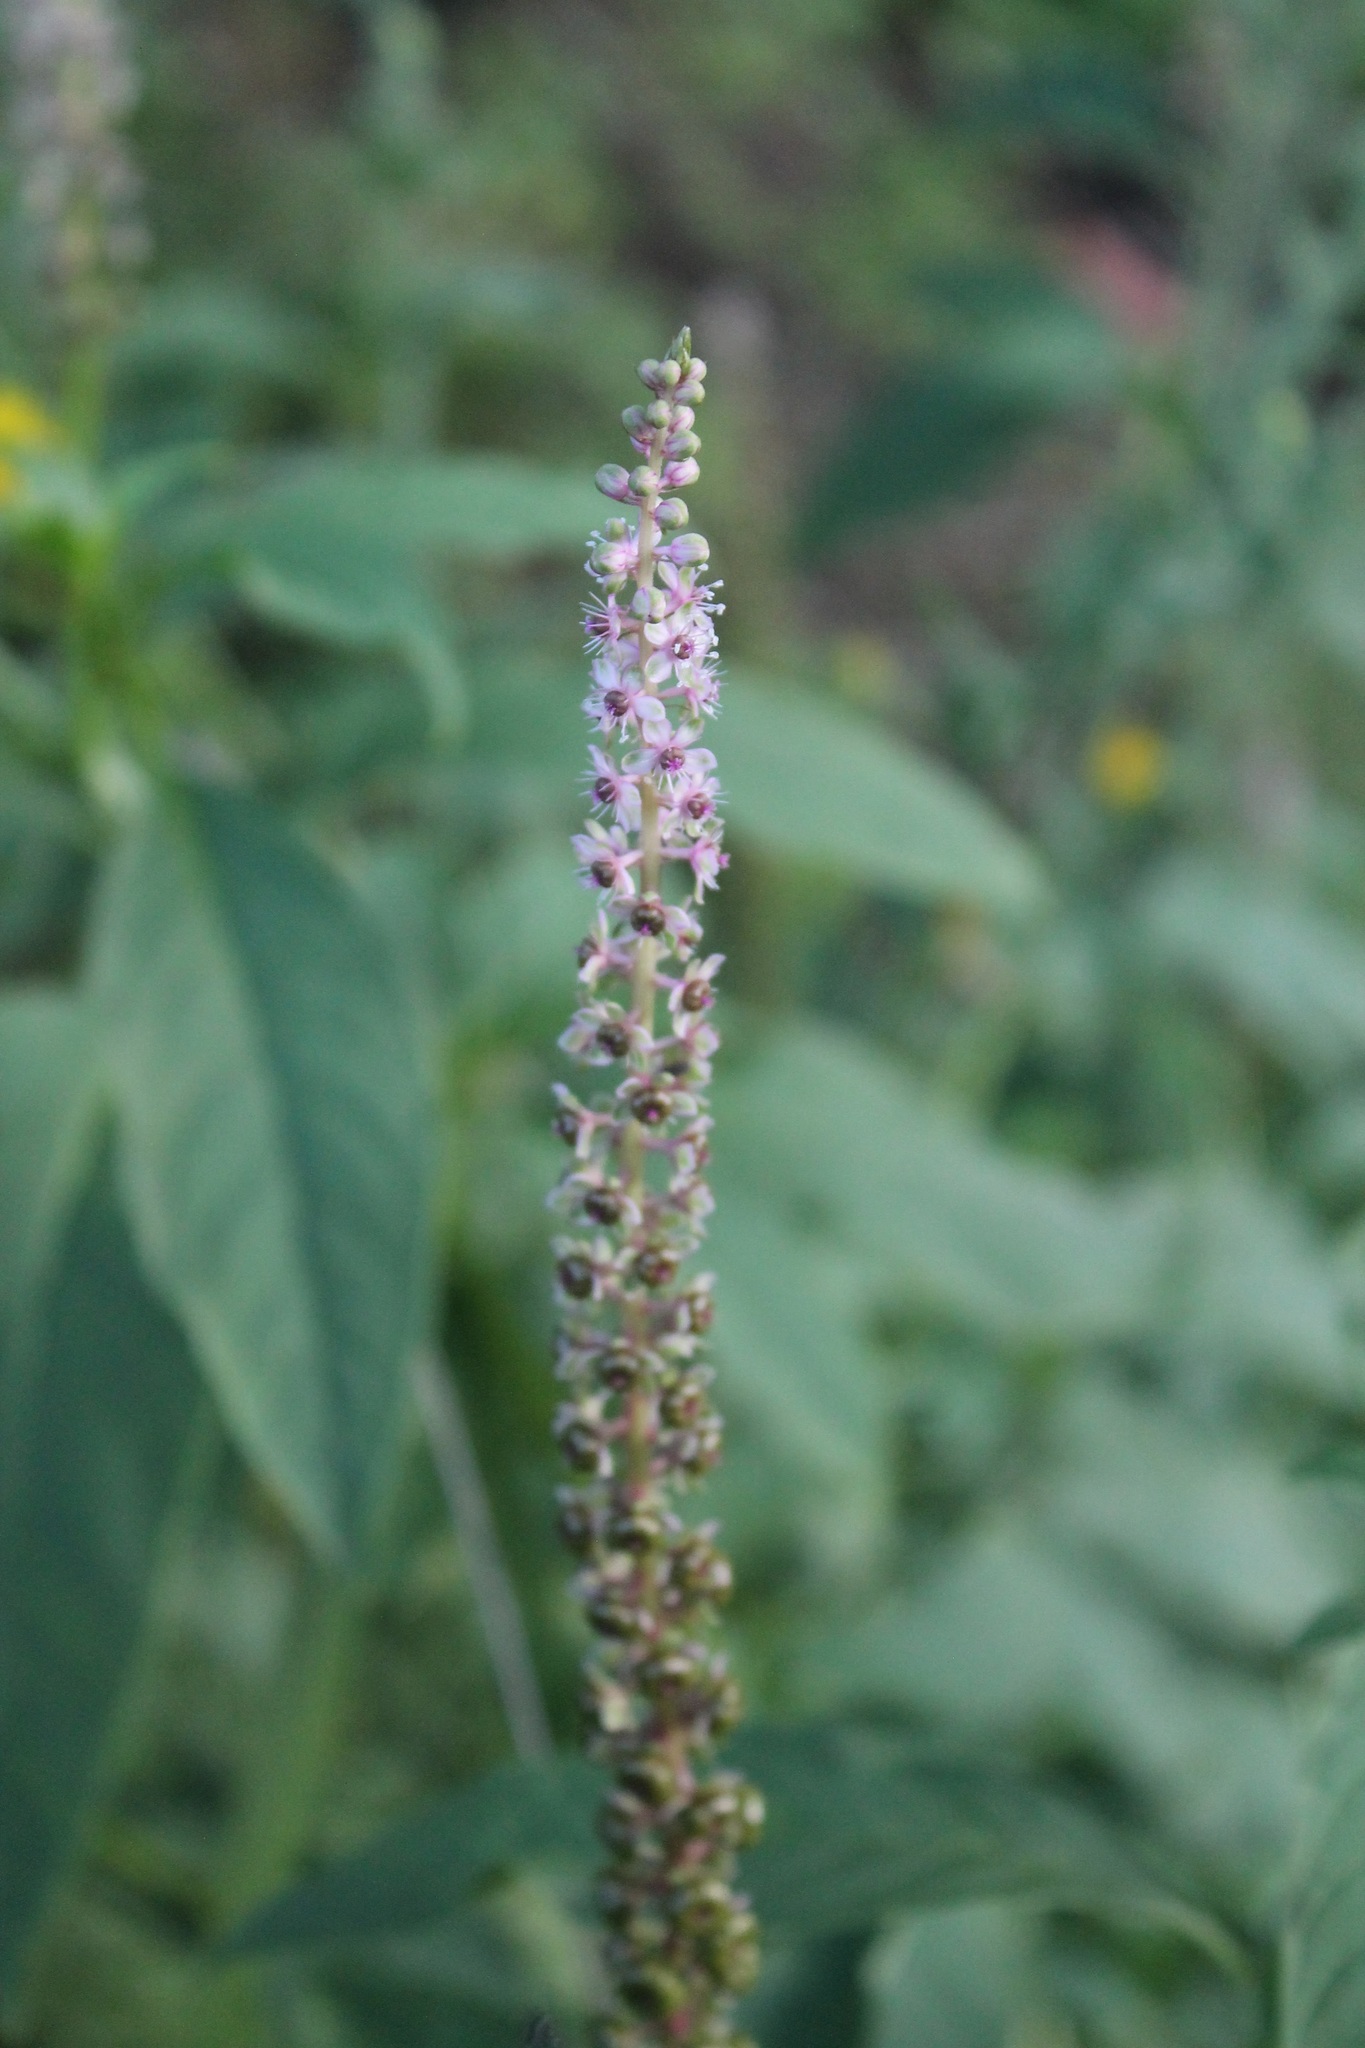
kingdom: Plantae
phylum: Tracheophyta
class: Magnoliopsida
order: Caryophyllales
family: Phytolaccaceae
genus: Phytolacca
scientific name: Phytolacca icosandra
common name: Button pokeweed
